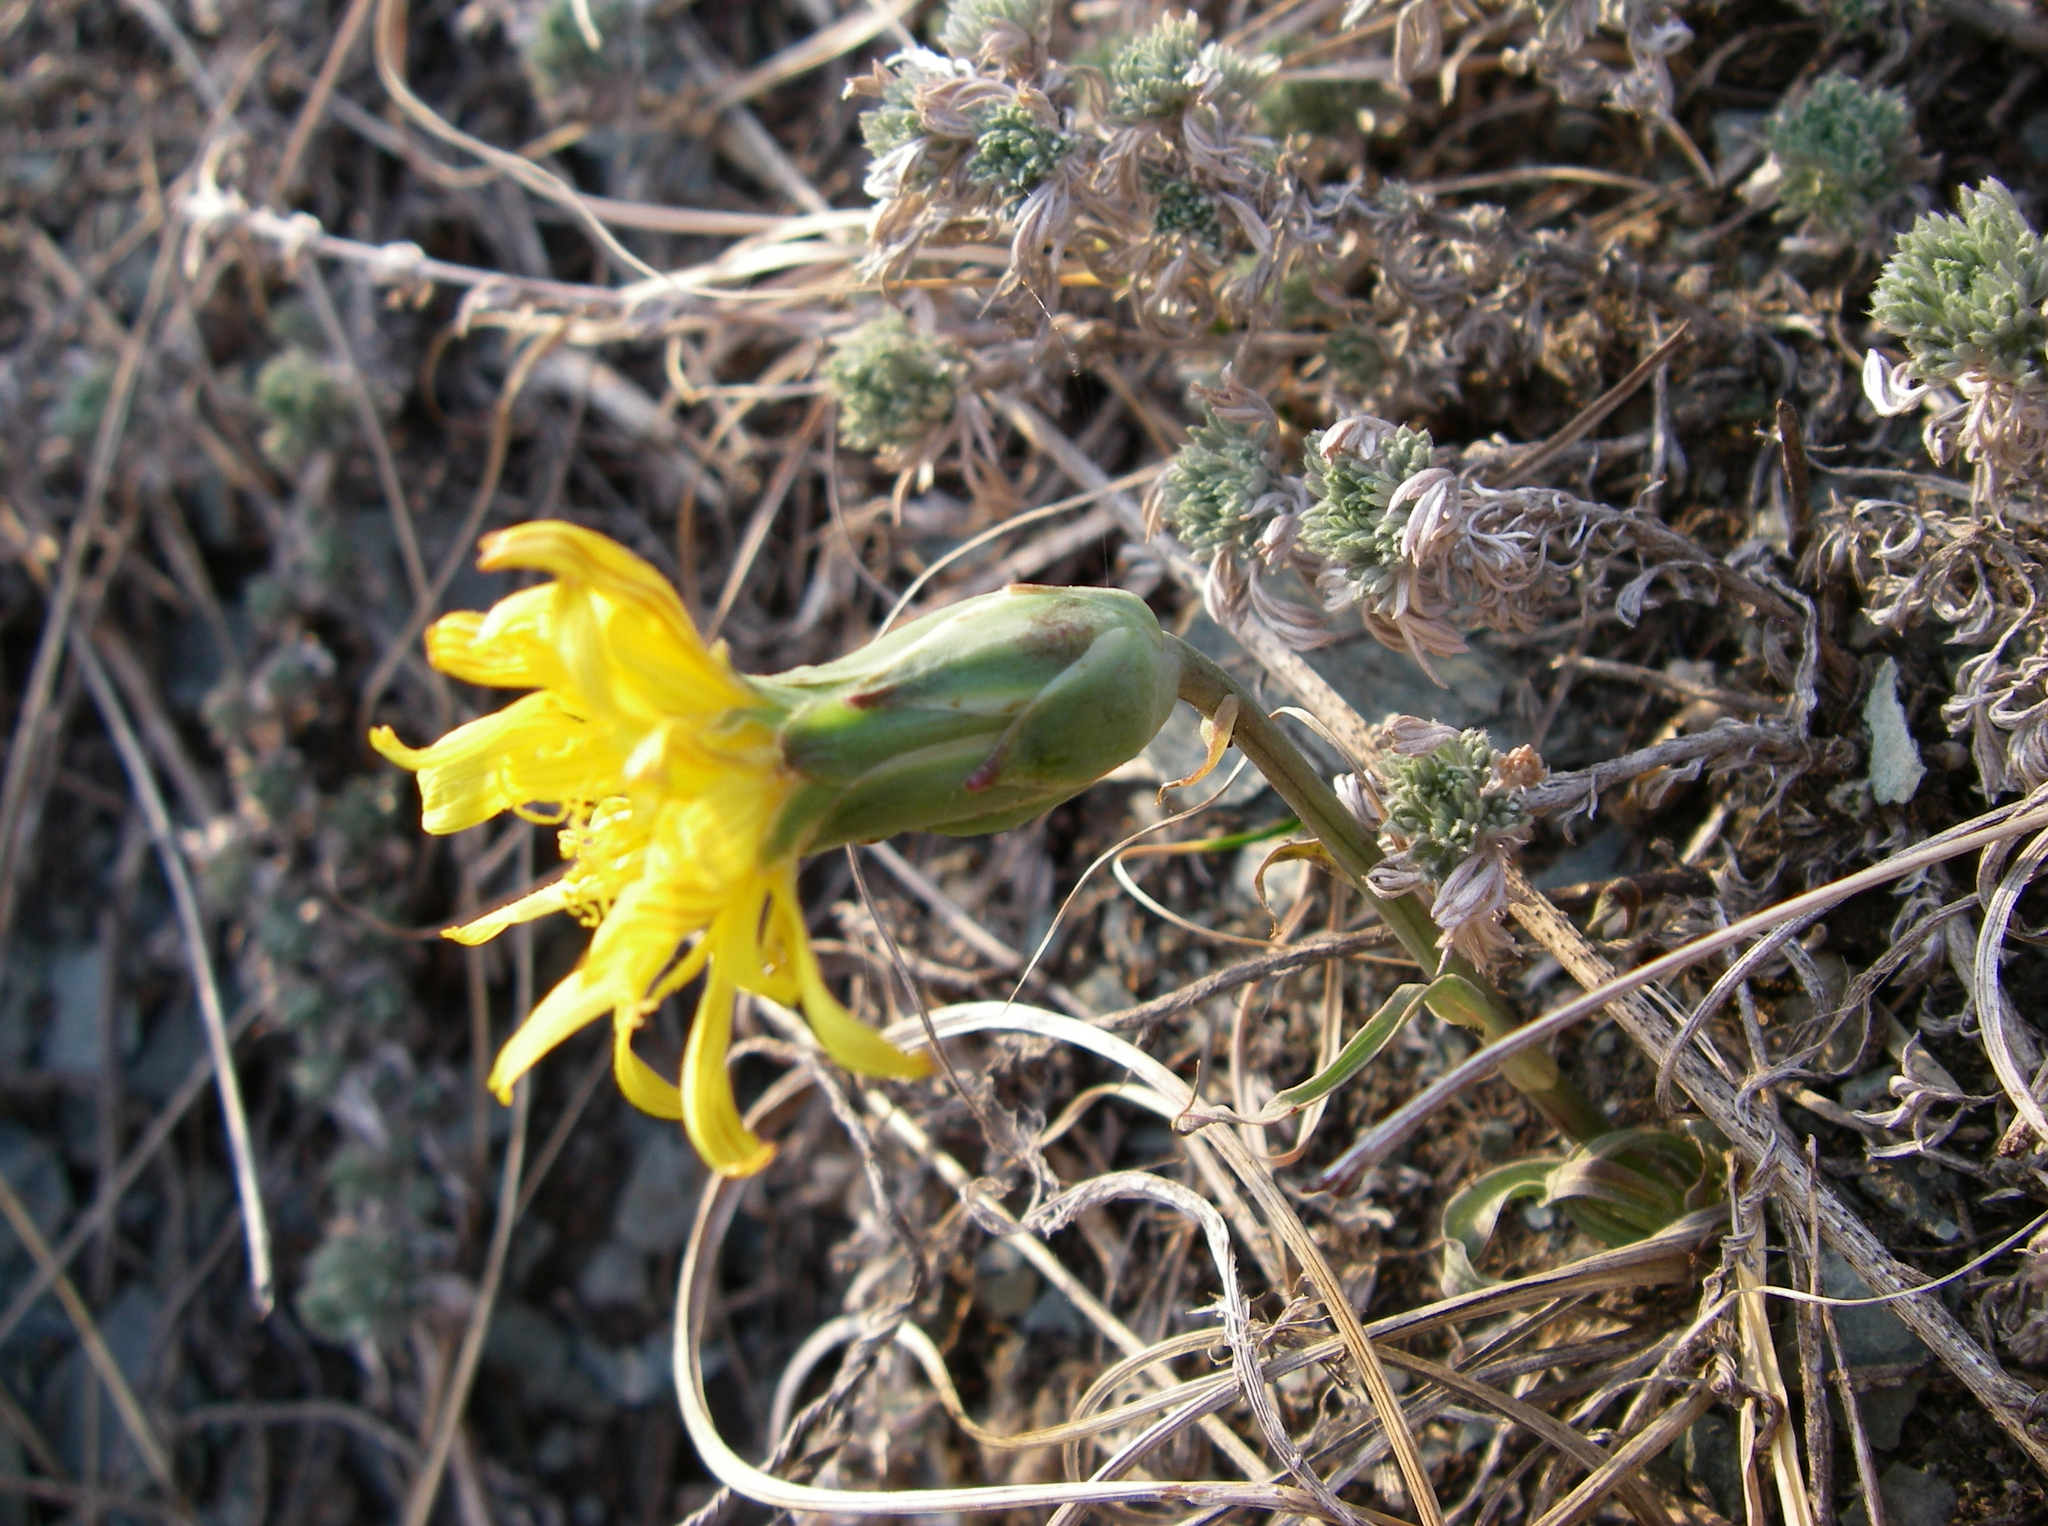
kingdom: Plantae
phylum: Tracheophyta
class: Magnoliopsida
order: Asterales
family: Asteraceae
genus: Takhtajaniantha
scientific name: Takhtajaniantha austriaca
